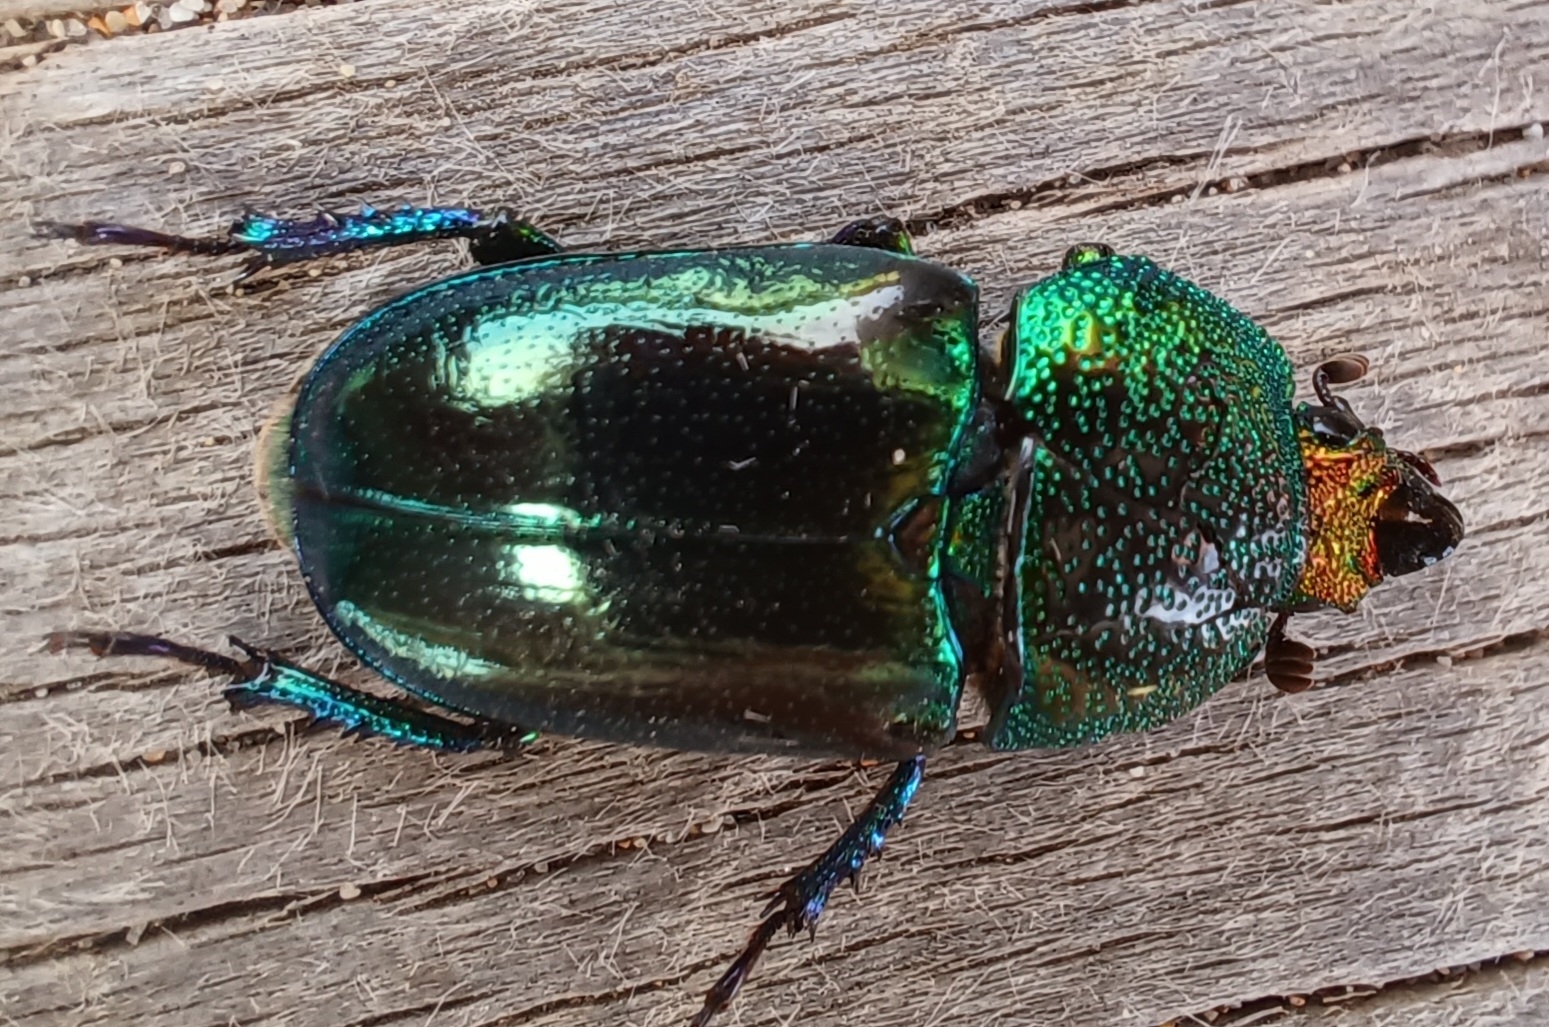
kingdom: Animalia
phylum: Arthropoda
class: Insecta
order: Coleoptera
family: Lucanidae
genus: Lamprima
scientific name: Lamprima aurata
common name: Golden stag beetle
